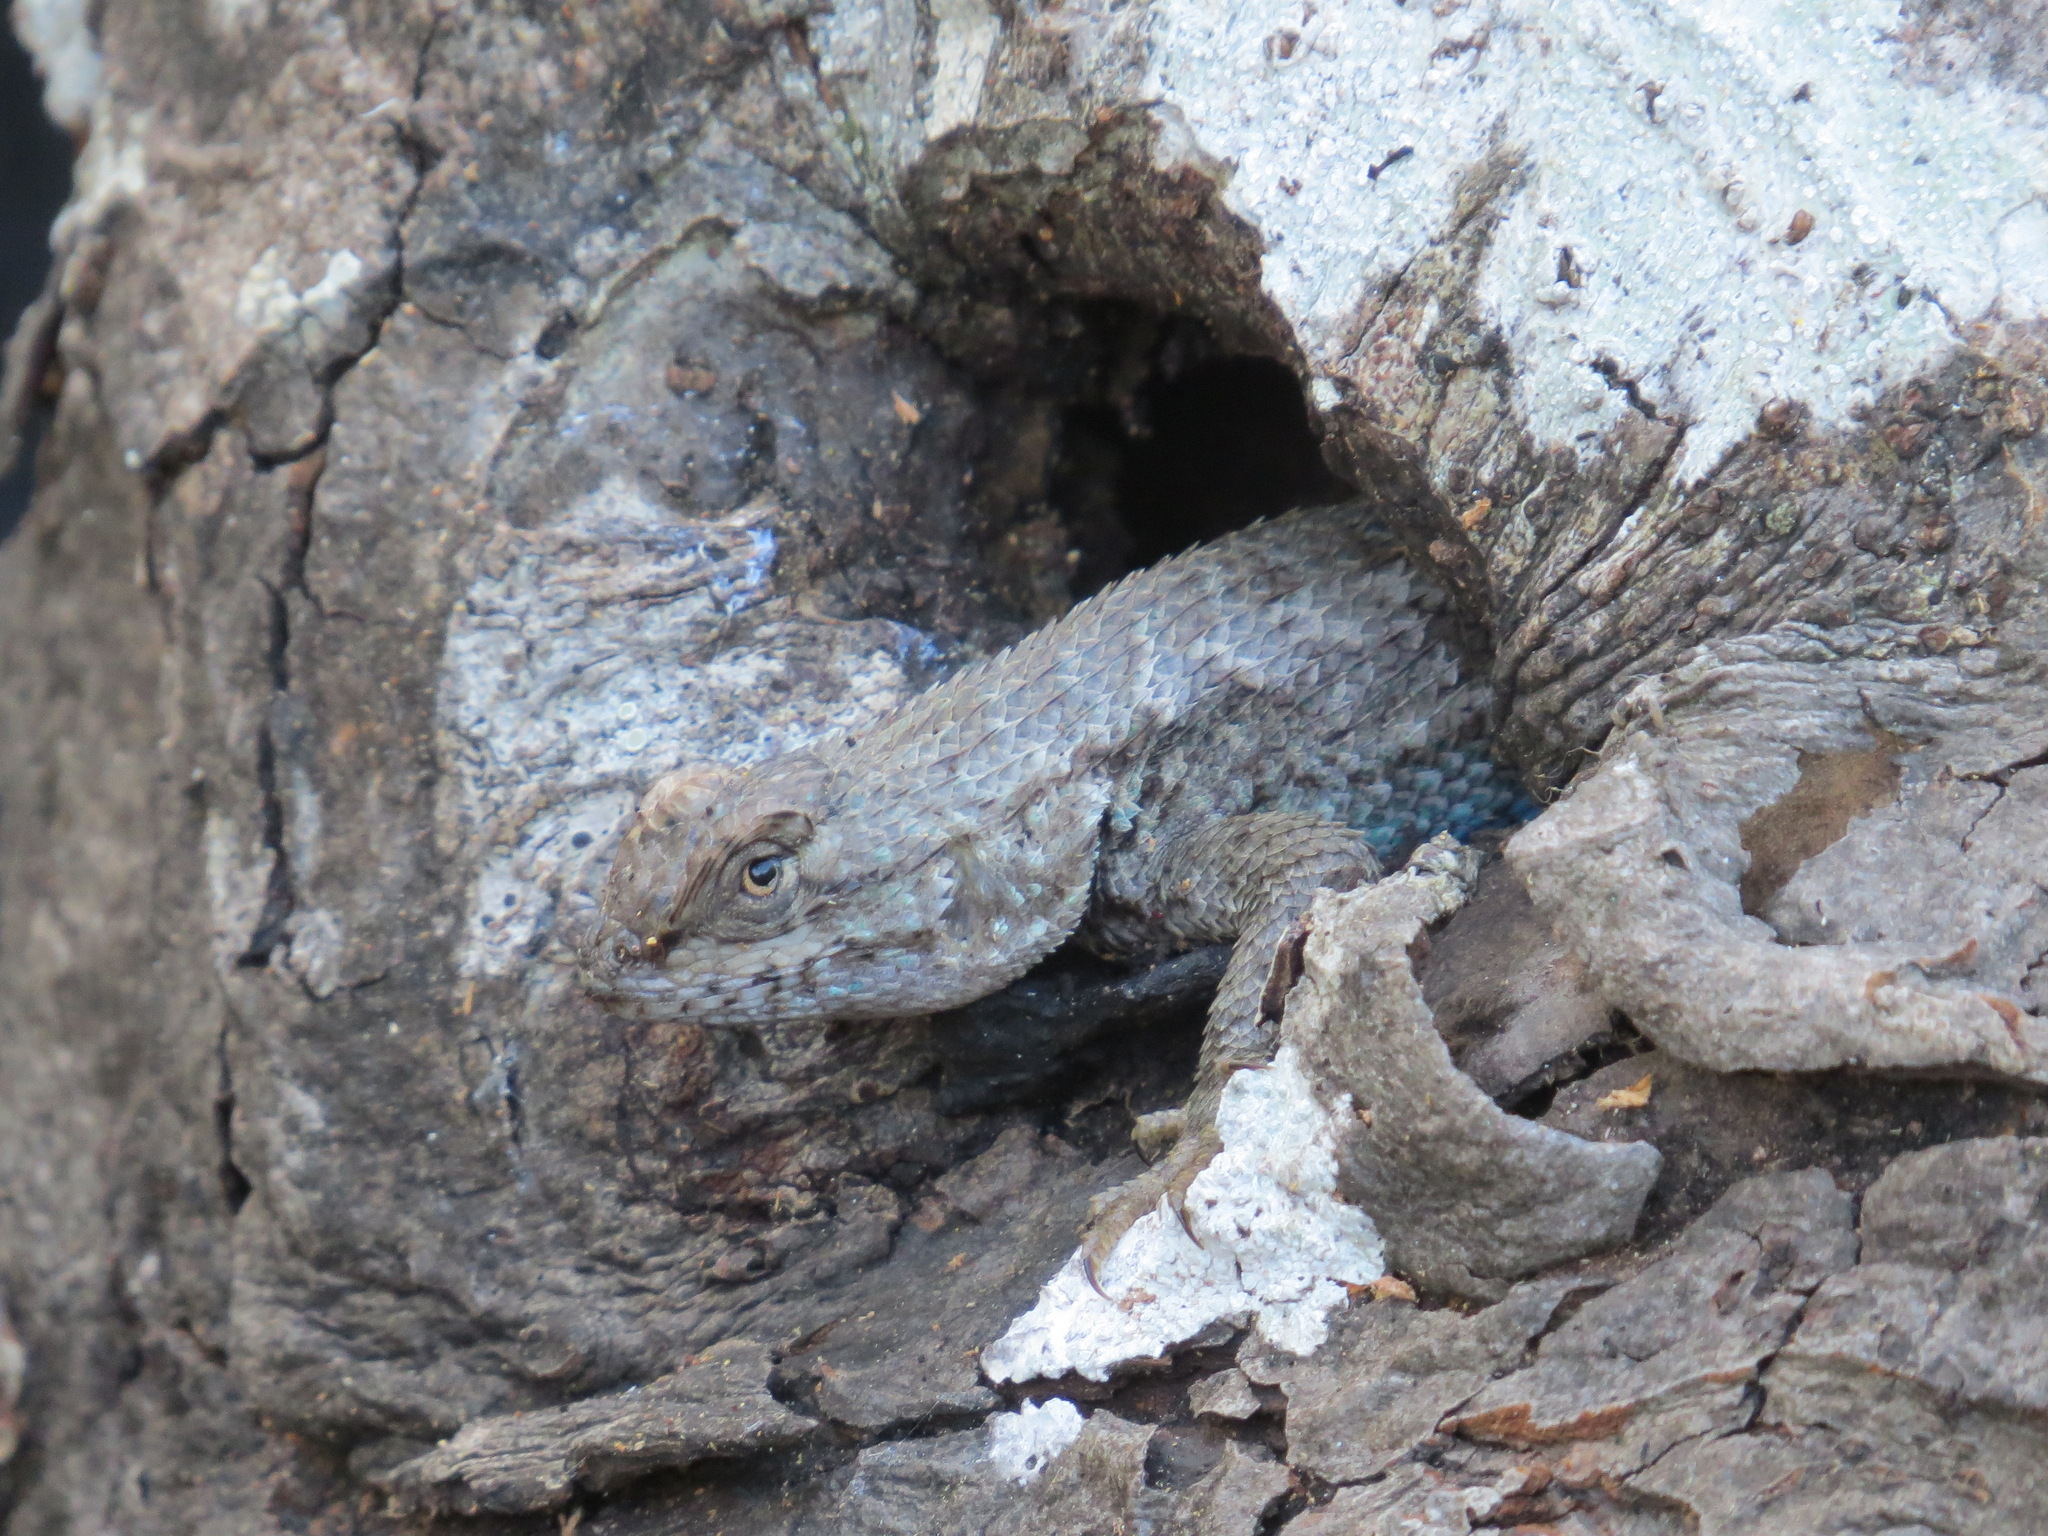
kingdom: Animalia
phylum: Chordata
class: Squamata
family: Phrynosomatidae
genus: Sceloporus
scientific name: Sceloporus occidentalis
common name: Western fence lizard
